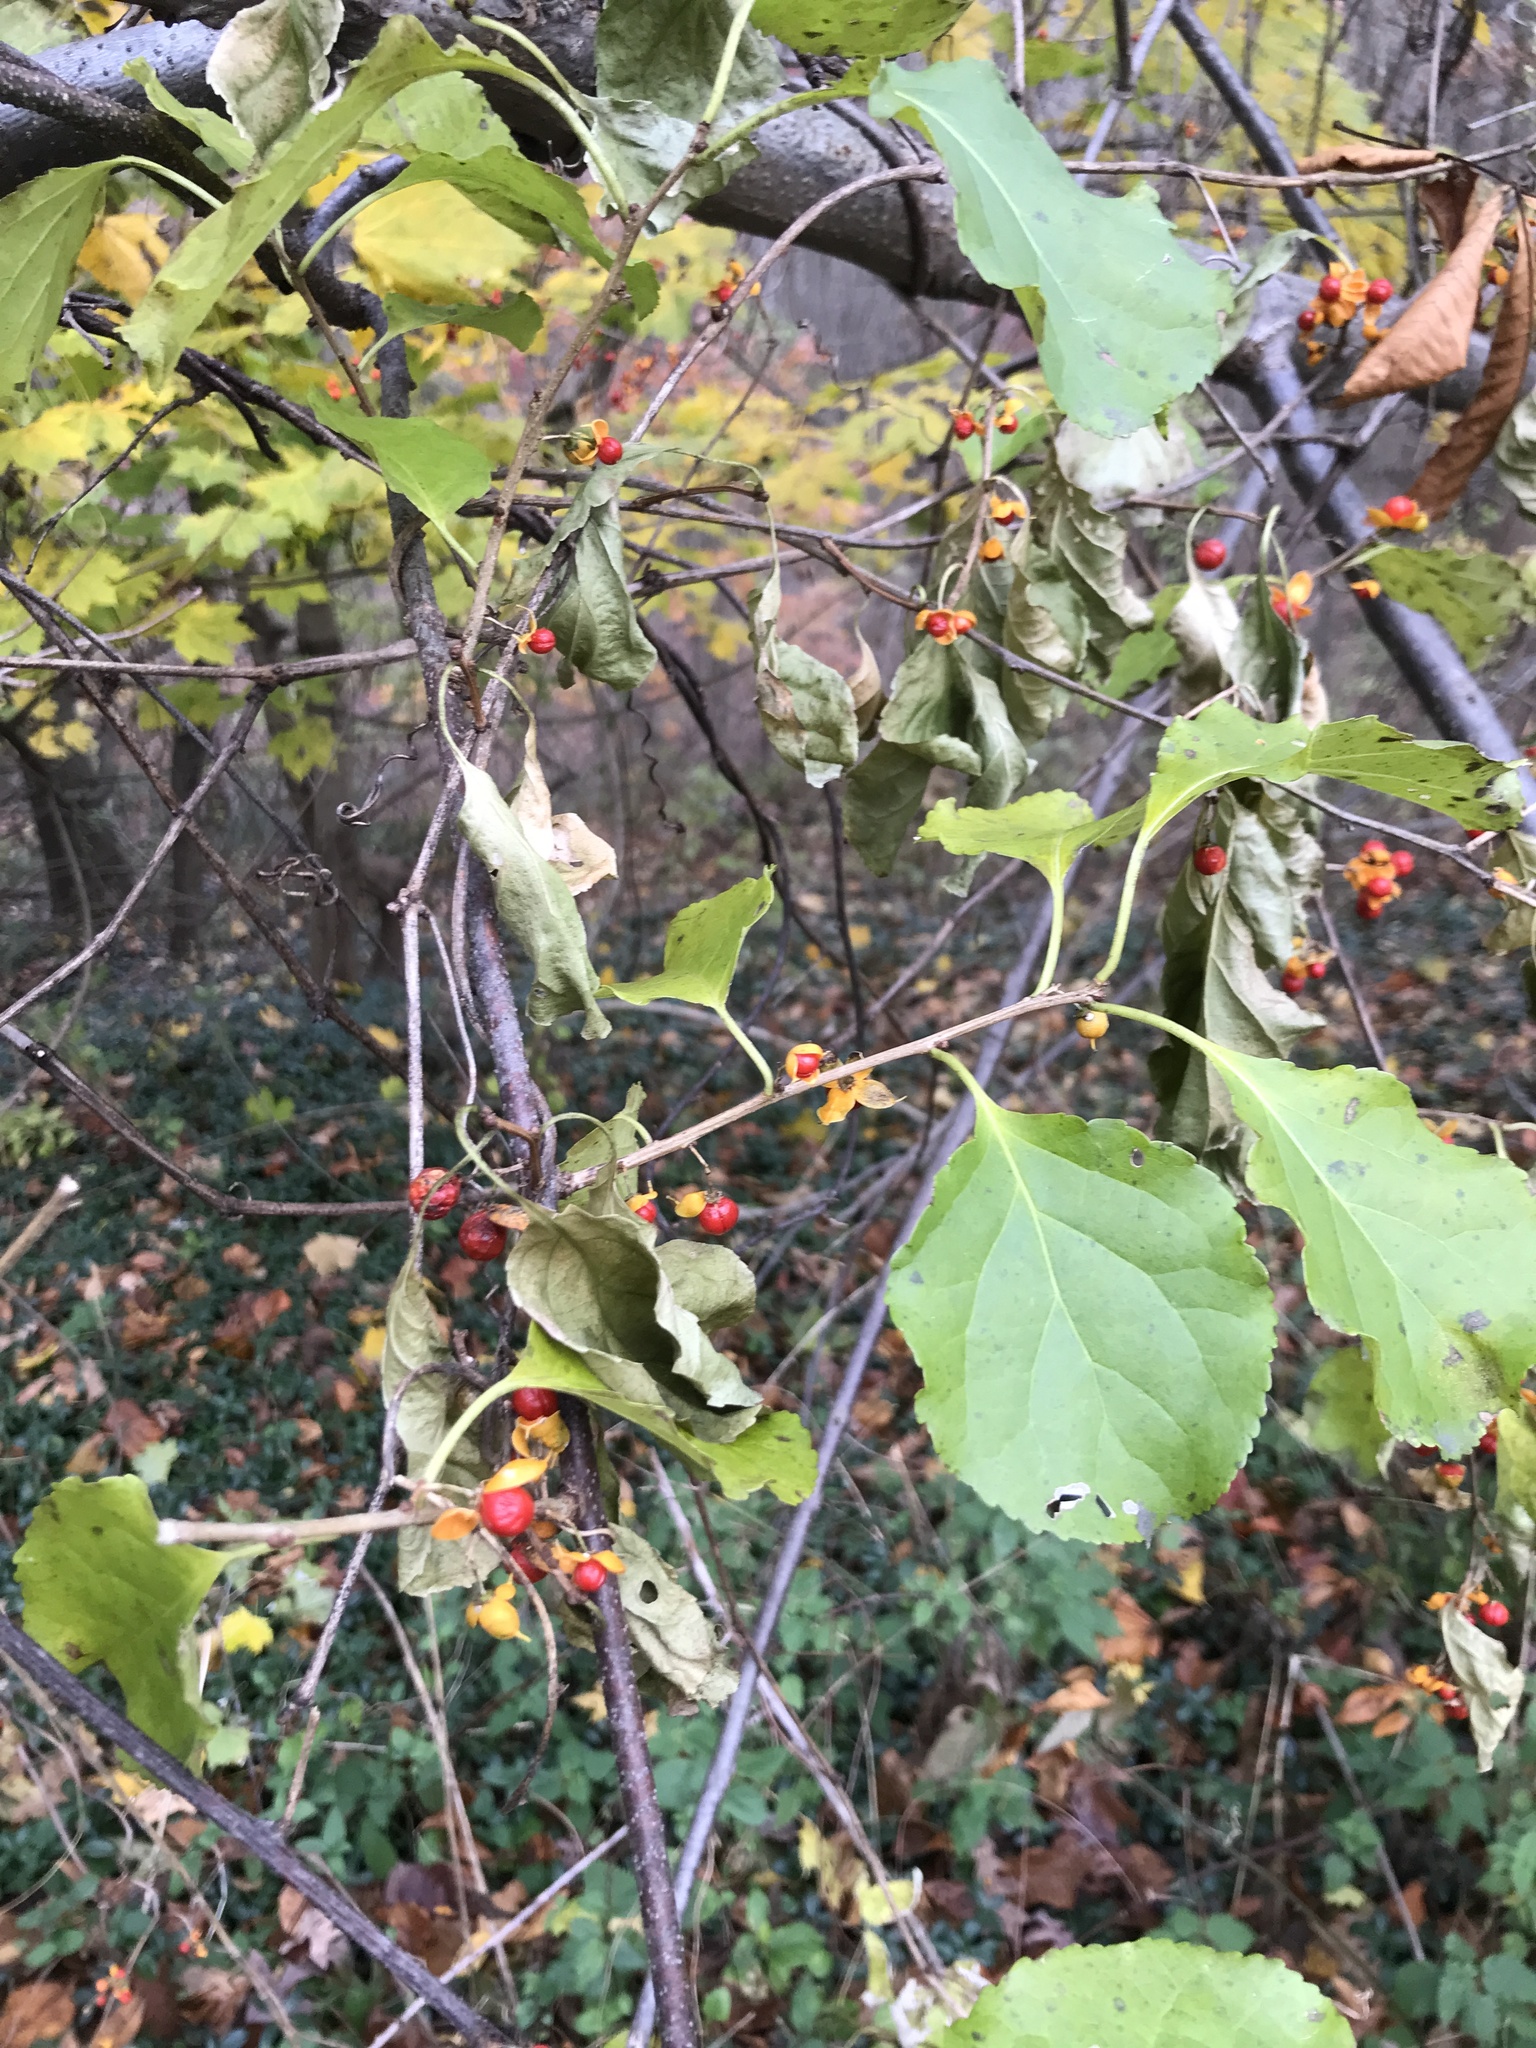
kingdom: Plantae
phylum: Tracheophyta
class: Magnoliopsida
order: Celastrales
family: Celastraceae
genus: Celastrus
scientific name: Celastrus orbiculatus
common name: Oriental bittersweet
